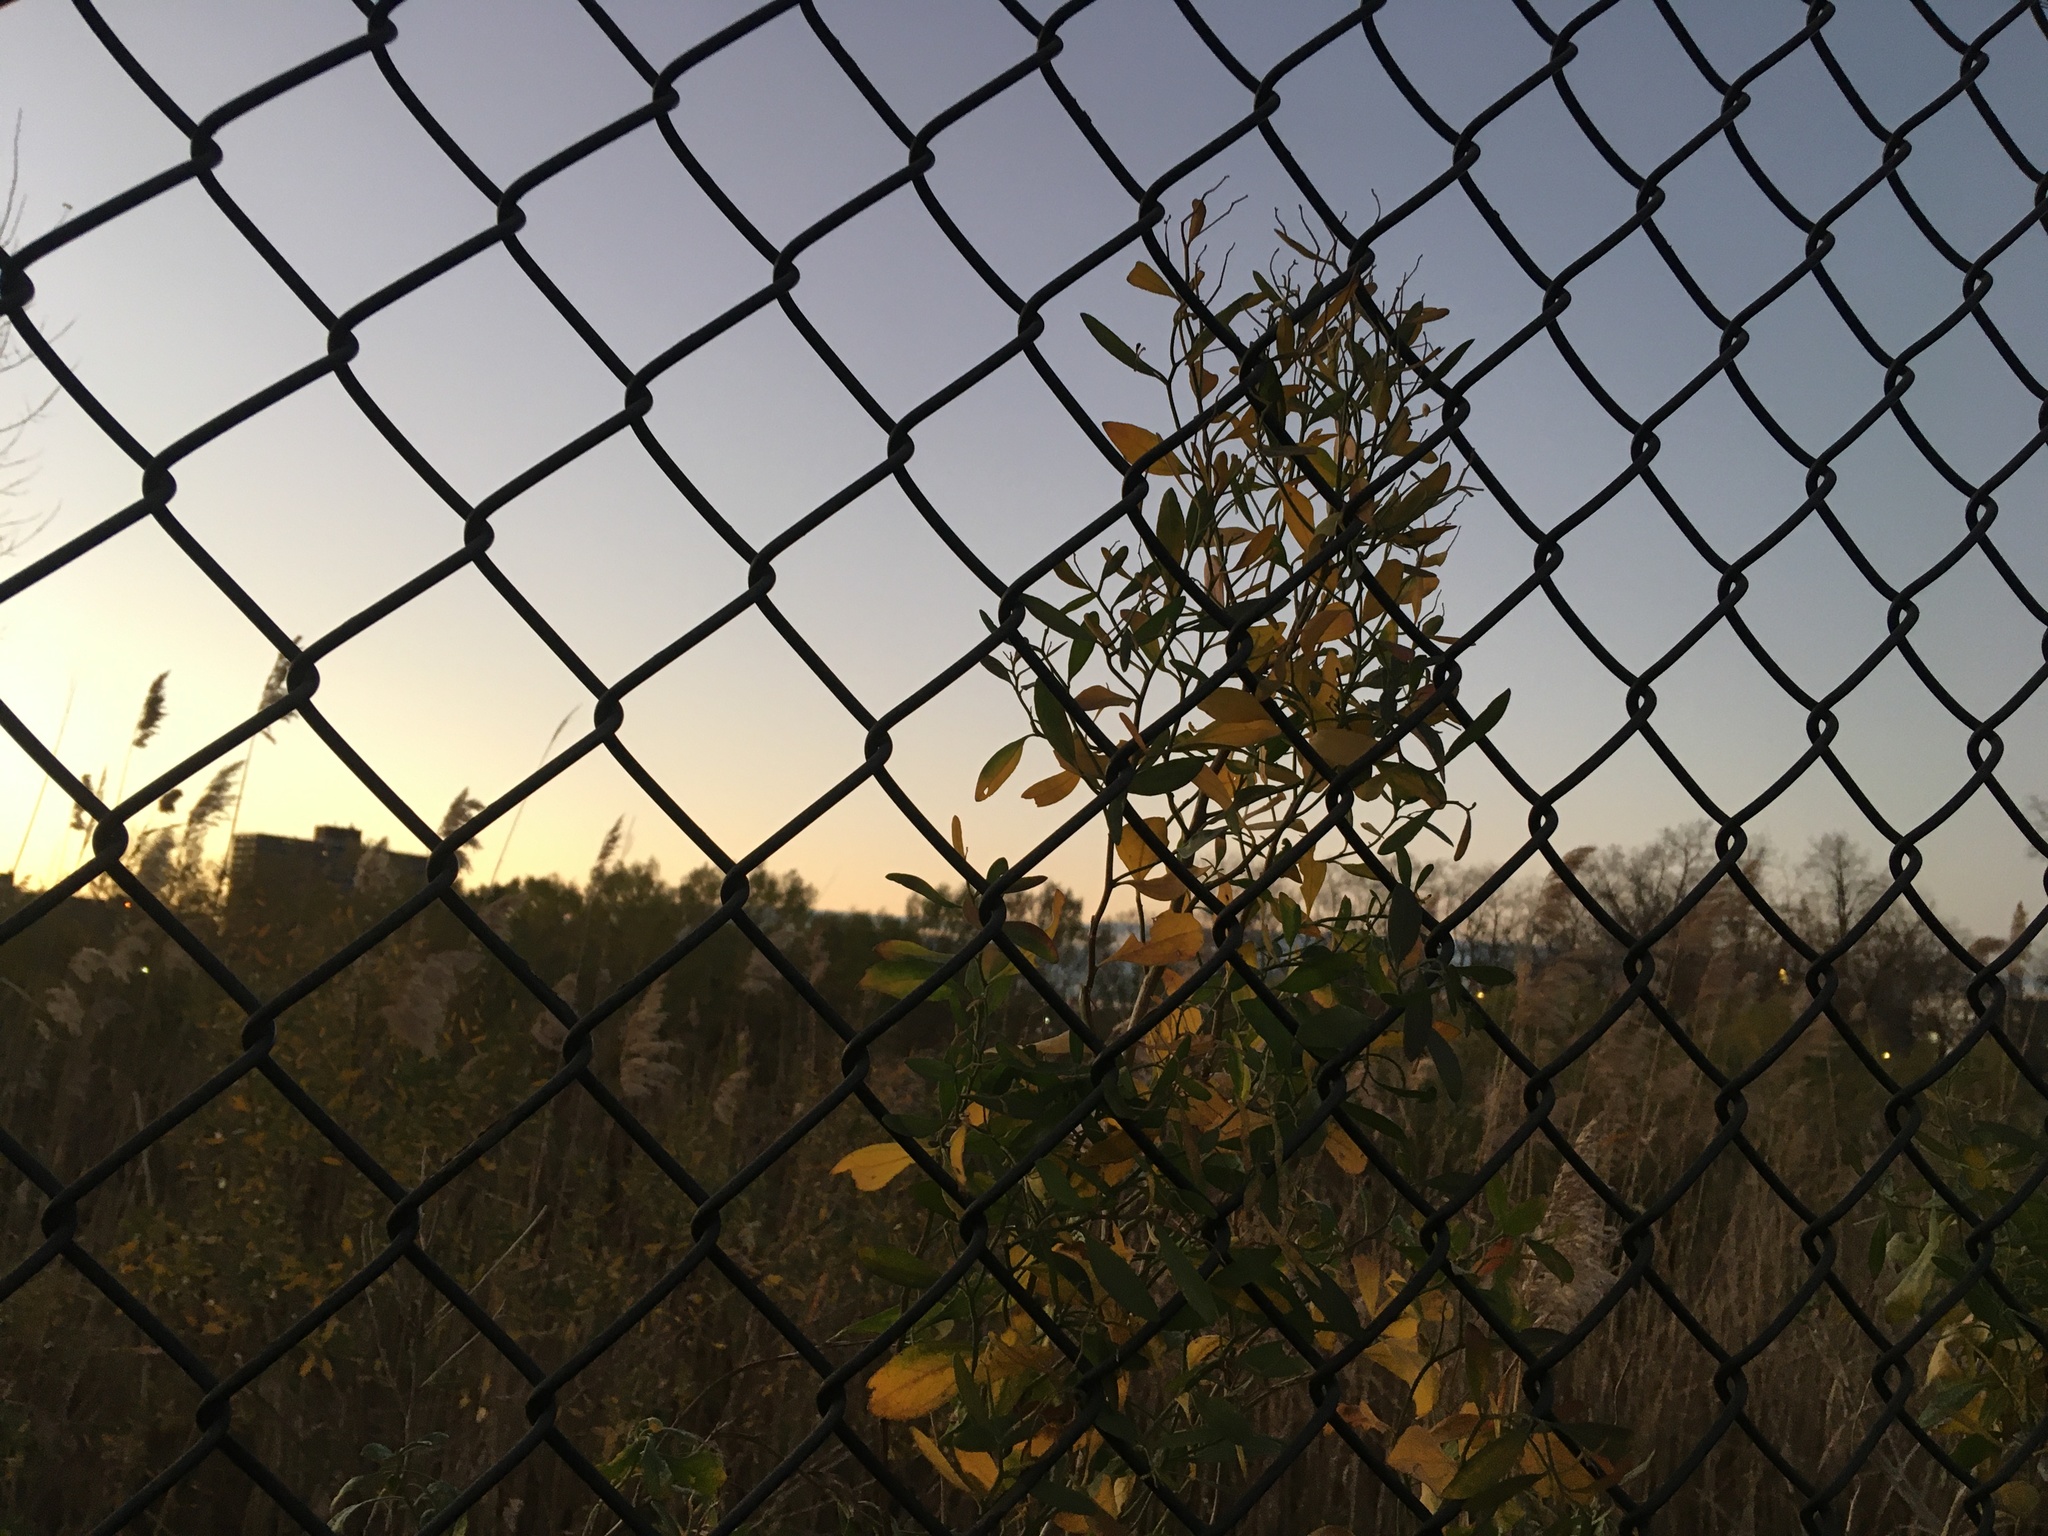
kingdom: Plantae
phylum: Tracheophyta
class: Magnoliopsida
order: Asterales
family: Asteraceae
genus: Baccharis
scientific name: Baccharis halimifolia
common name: Eastern baccharis
